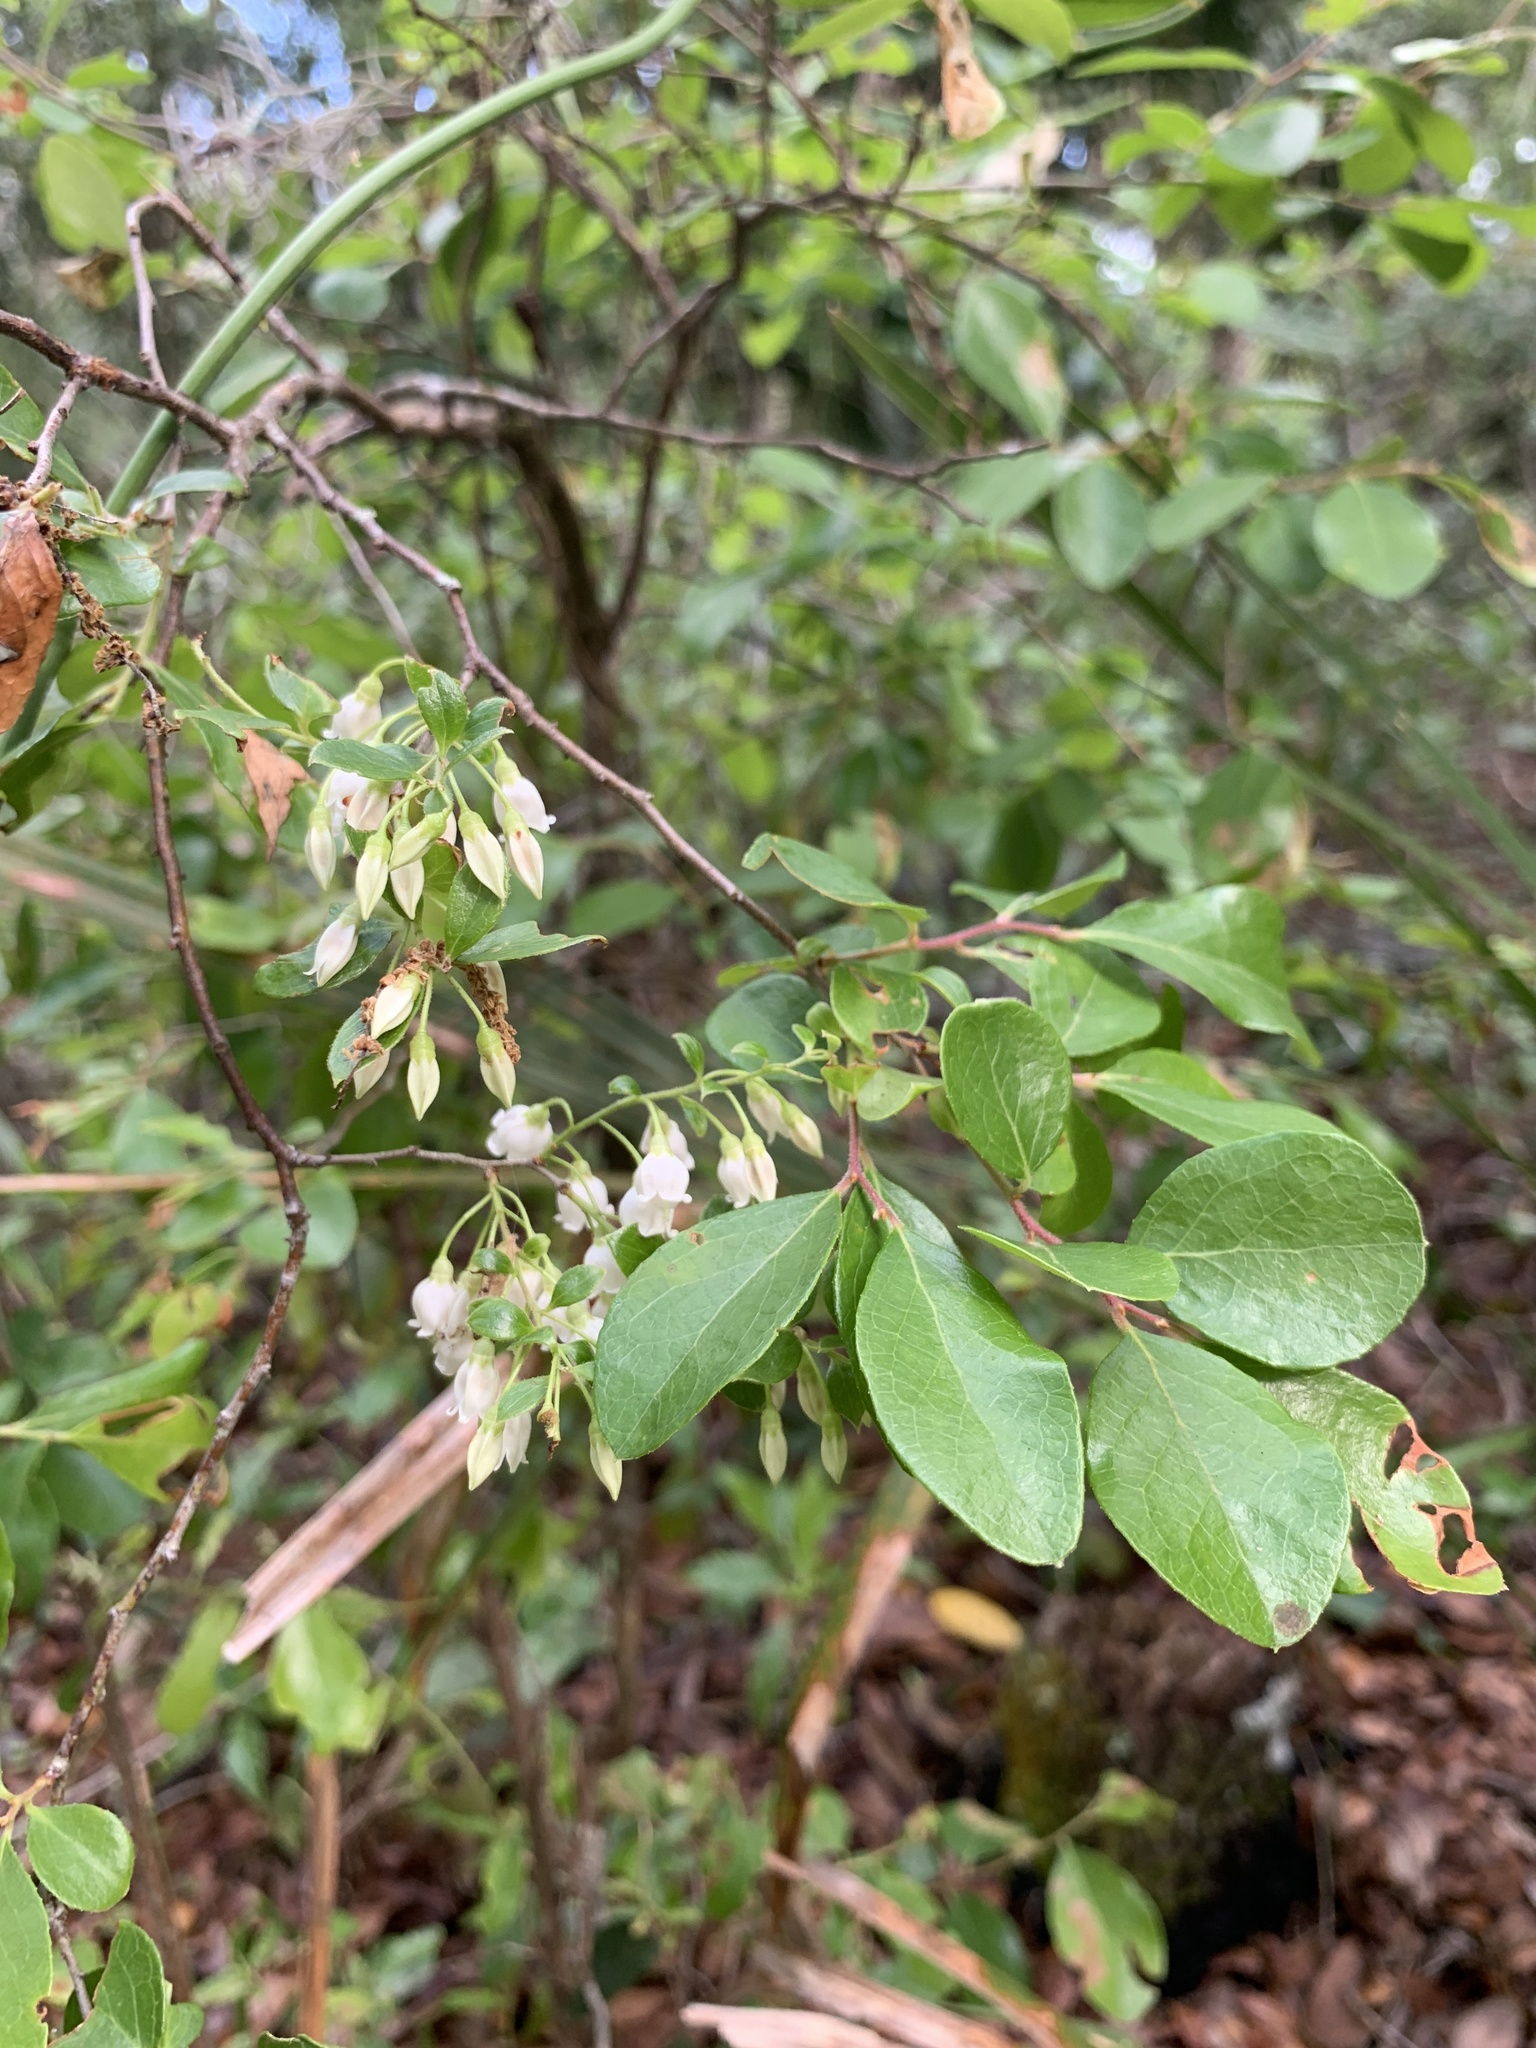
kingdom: Plantae
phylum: Tracheophyta
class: Magnoliopsida
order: Ericales
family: Ericaceae
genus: Vaccinium
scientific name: Vaccinium arboreum
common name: Farkleberry
